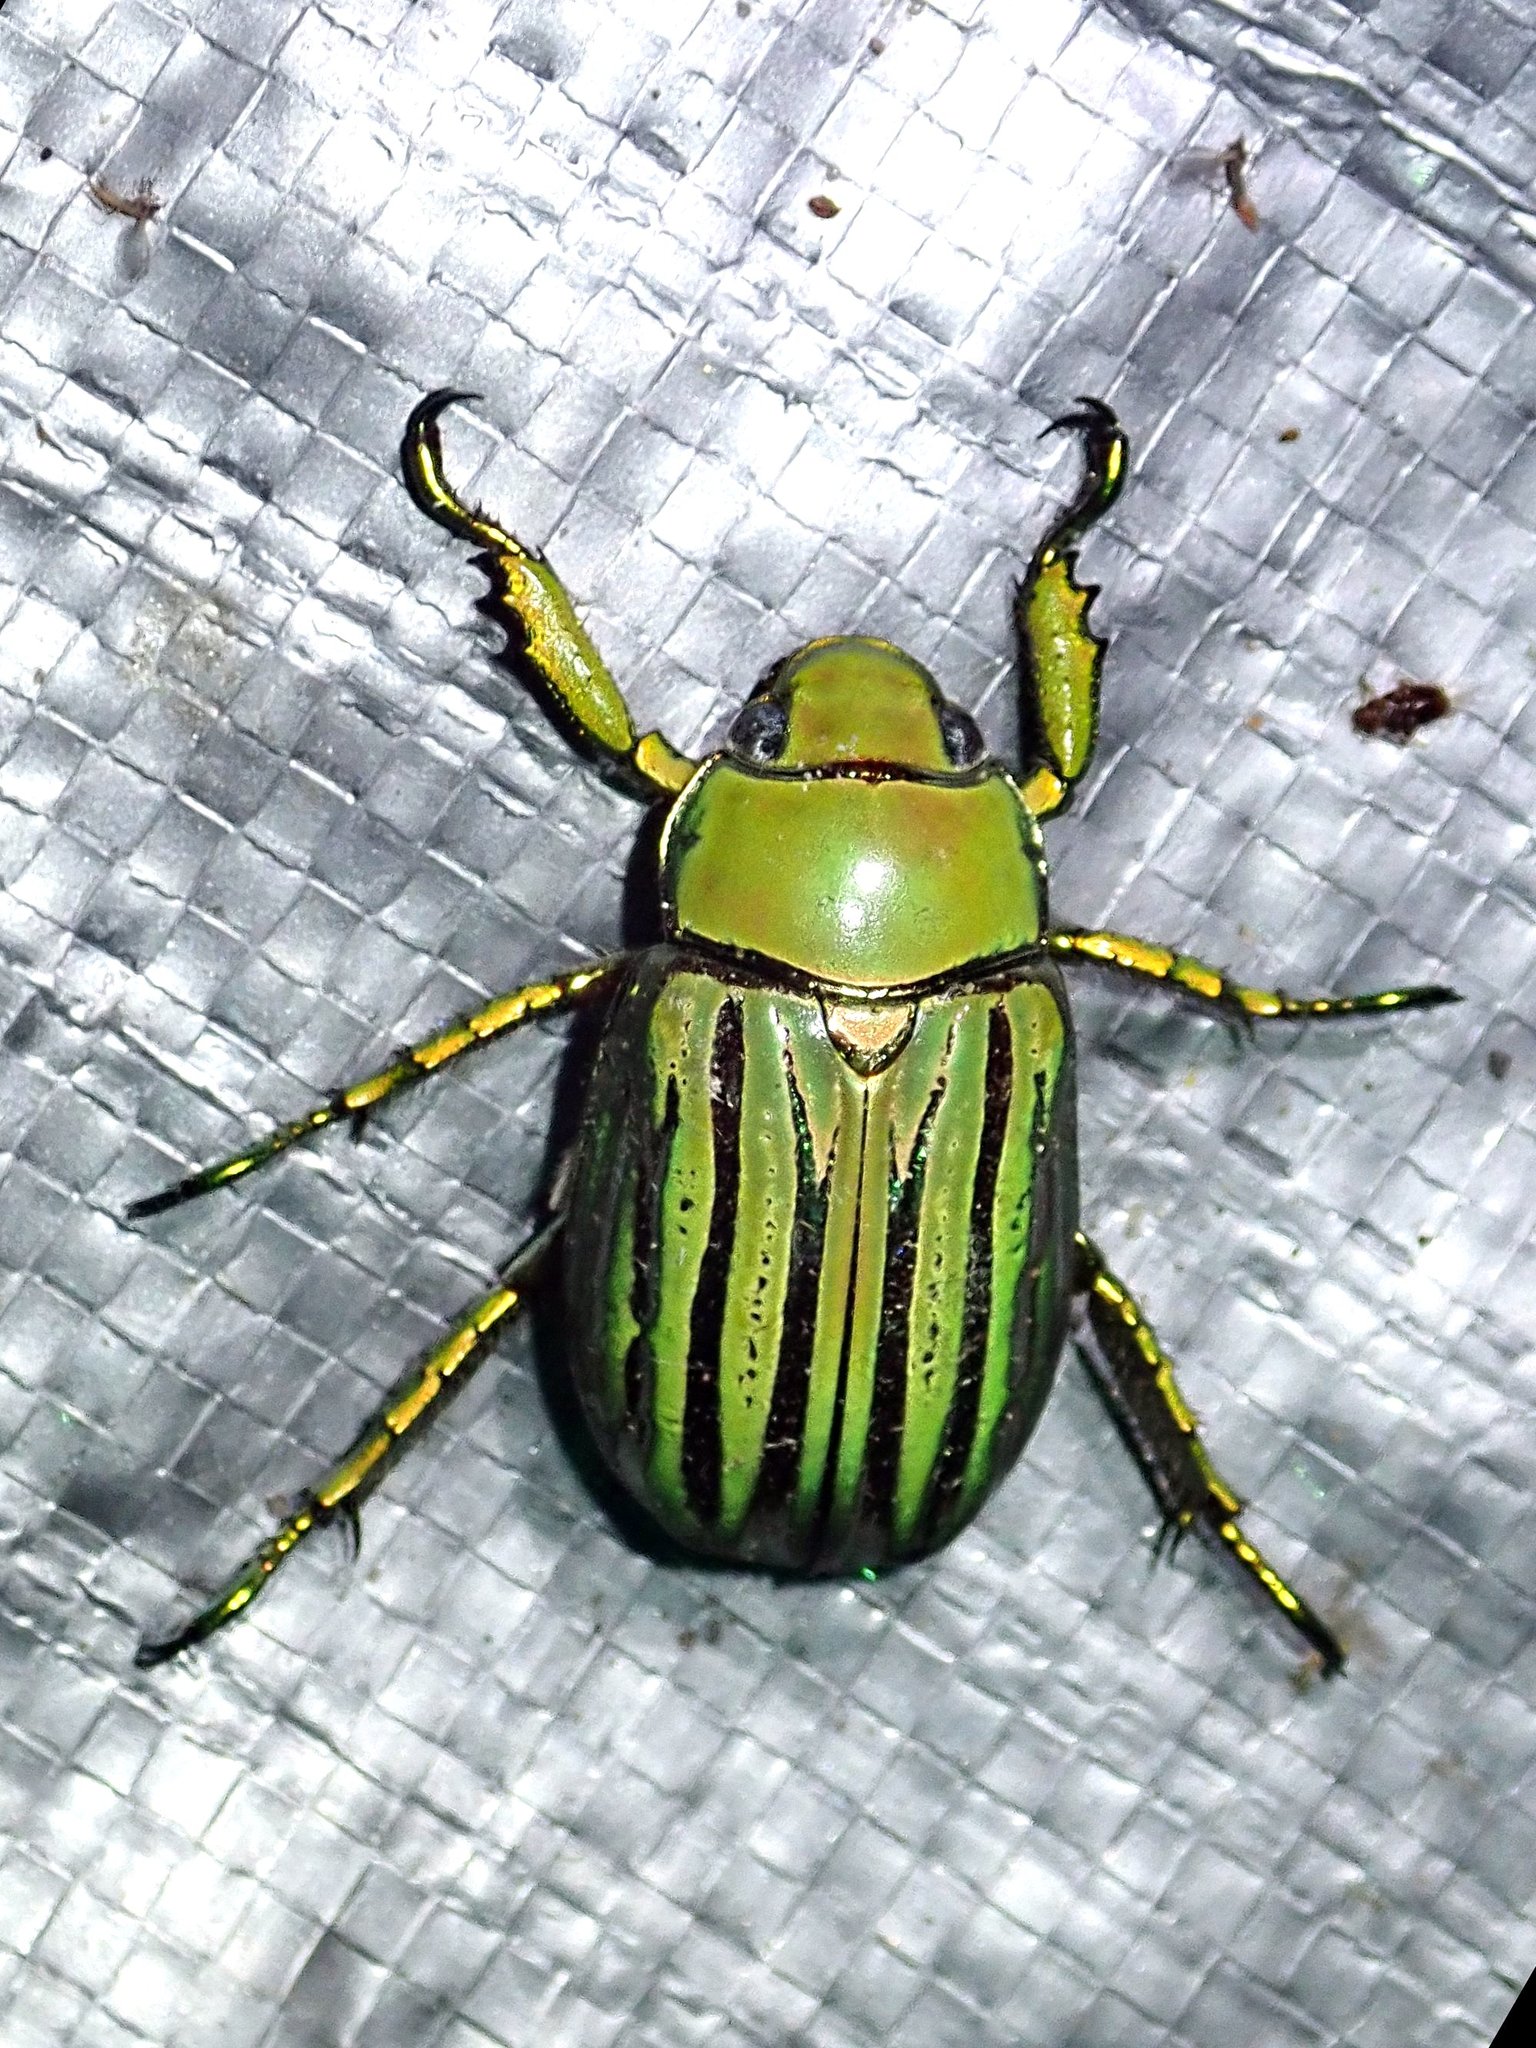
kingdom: Animalia
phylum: Arthropoda
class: Insecta
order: Coleoptera
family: Scarabaeidae
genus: Chrysina
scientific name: Chrysina gloriosa
